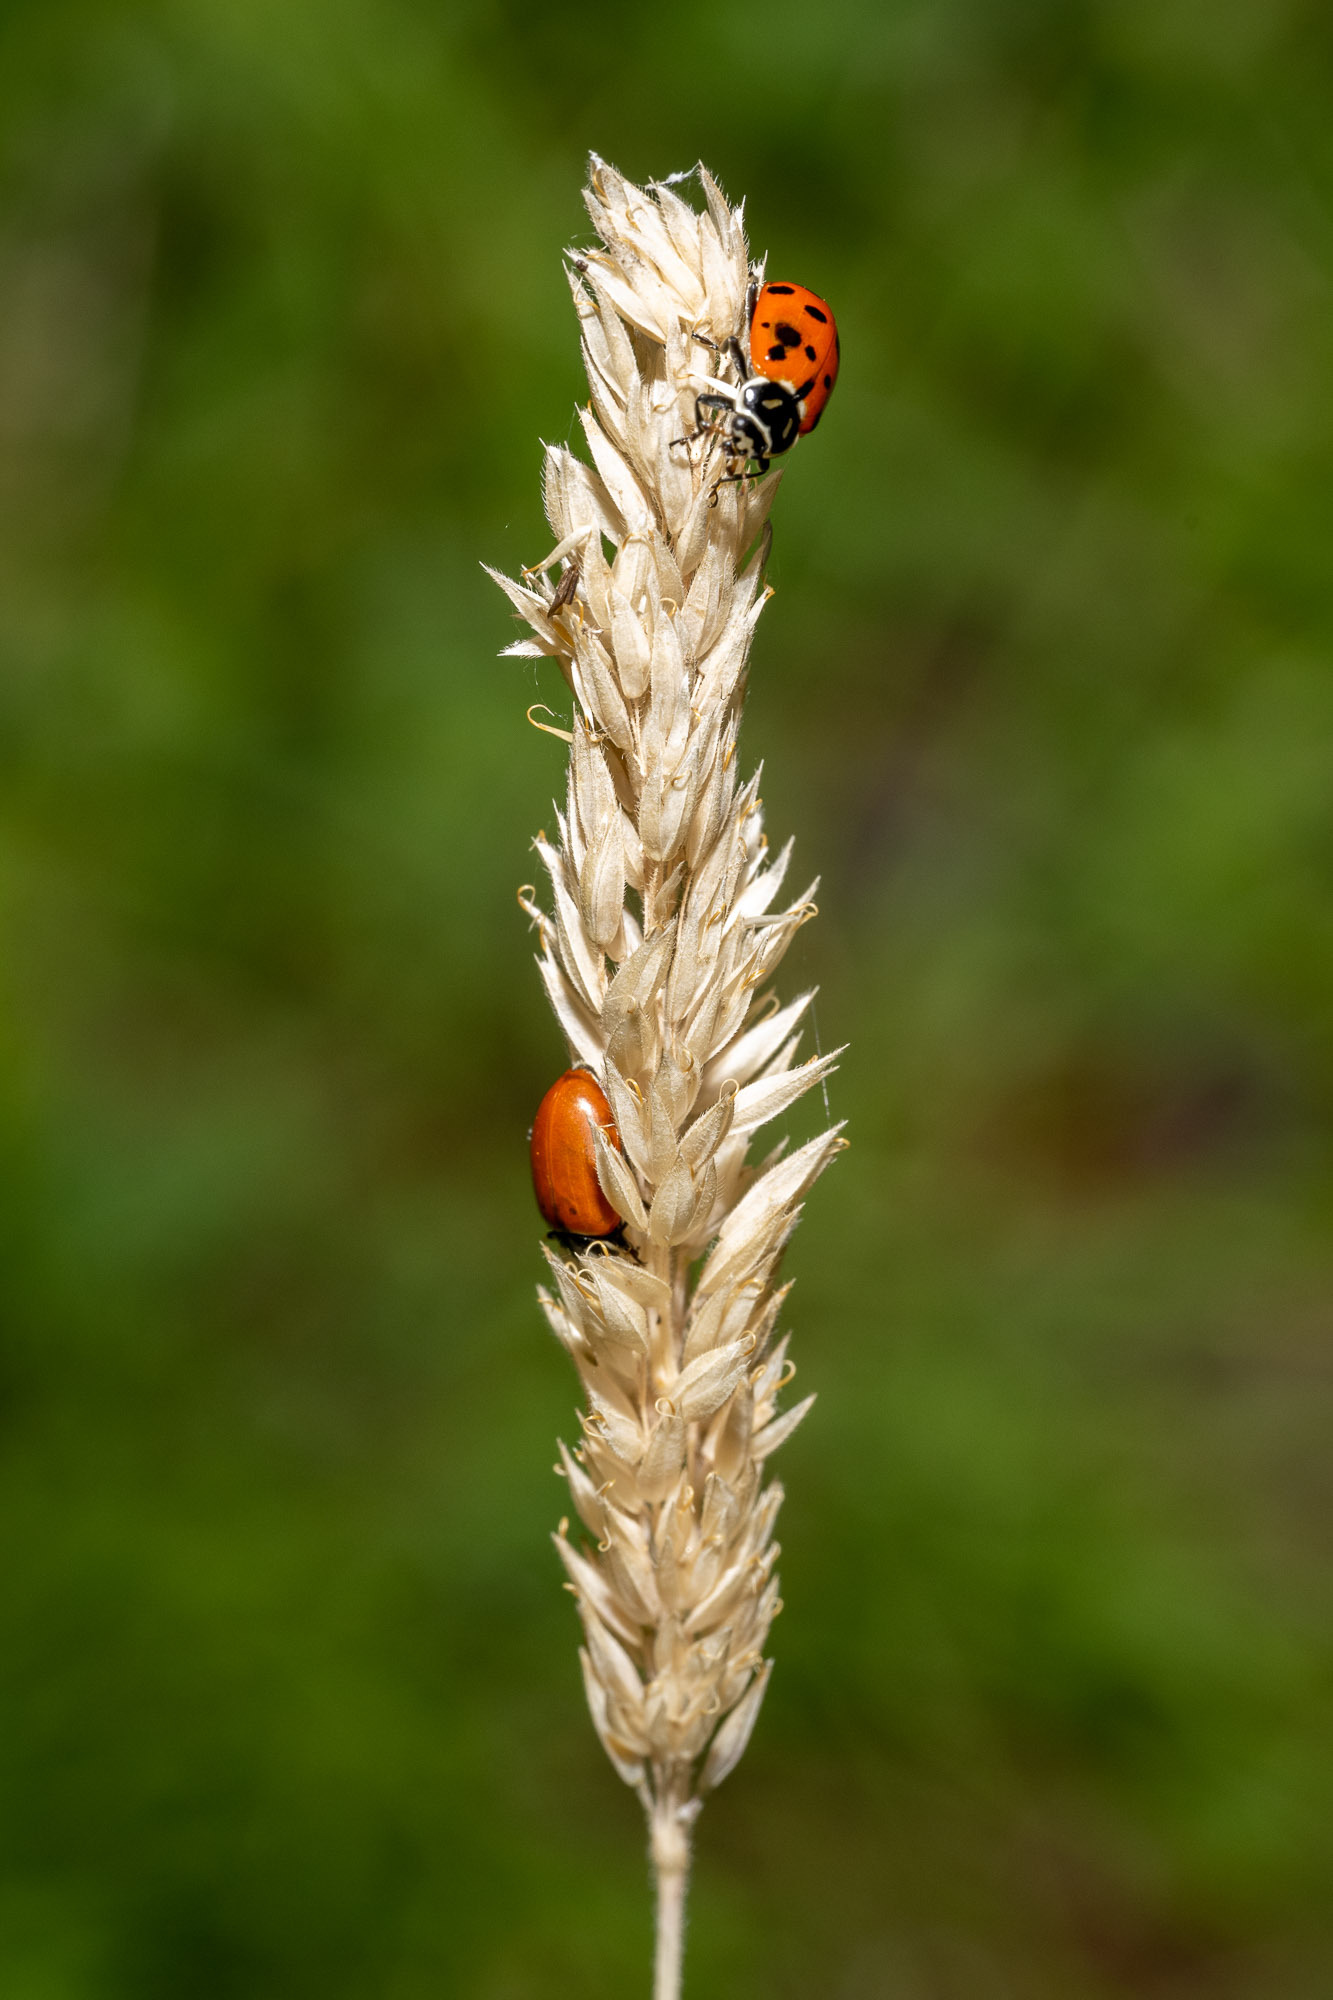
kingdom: Animalia
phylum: Arthropoda
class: Insecta
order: Coleoptera
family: Coccinellidae
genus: Hippodamia
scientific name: Hippodamia convergens
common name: Convergent lady beetle
